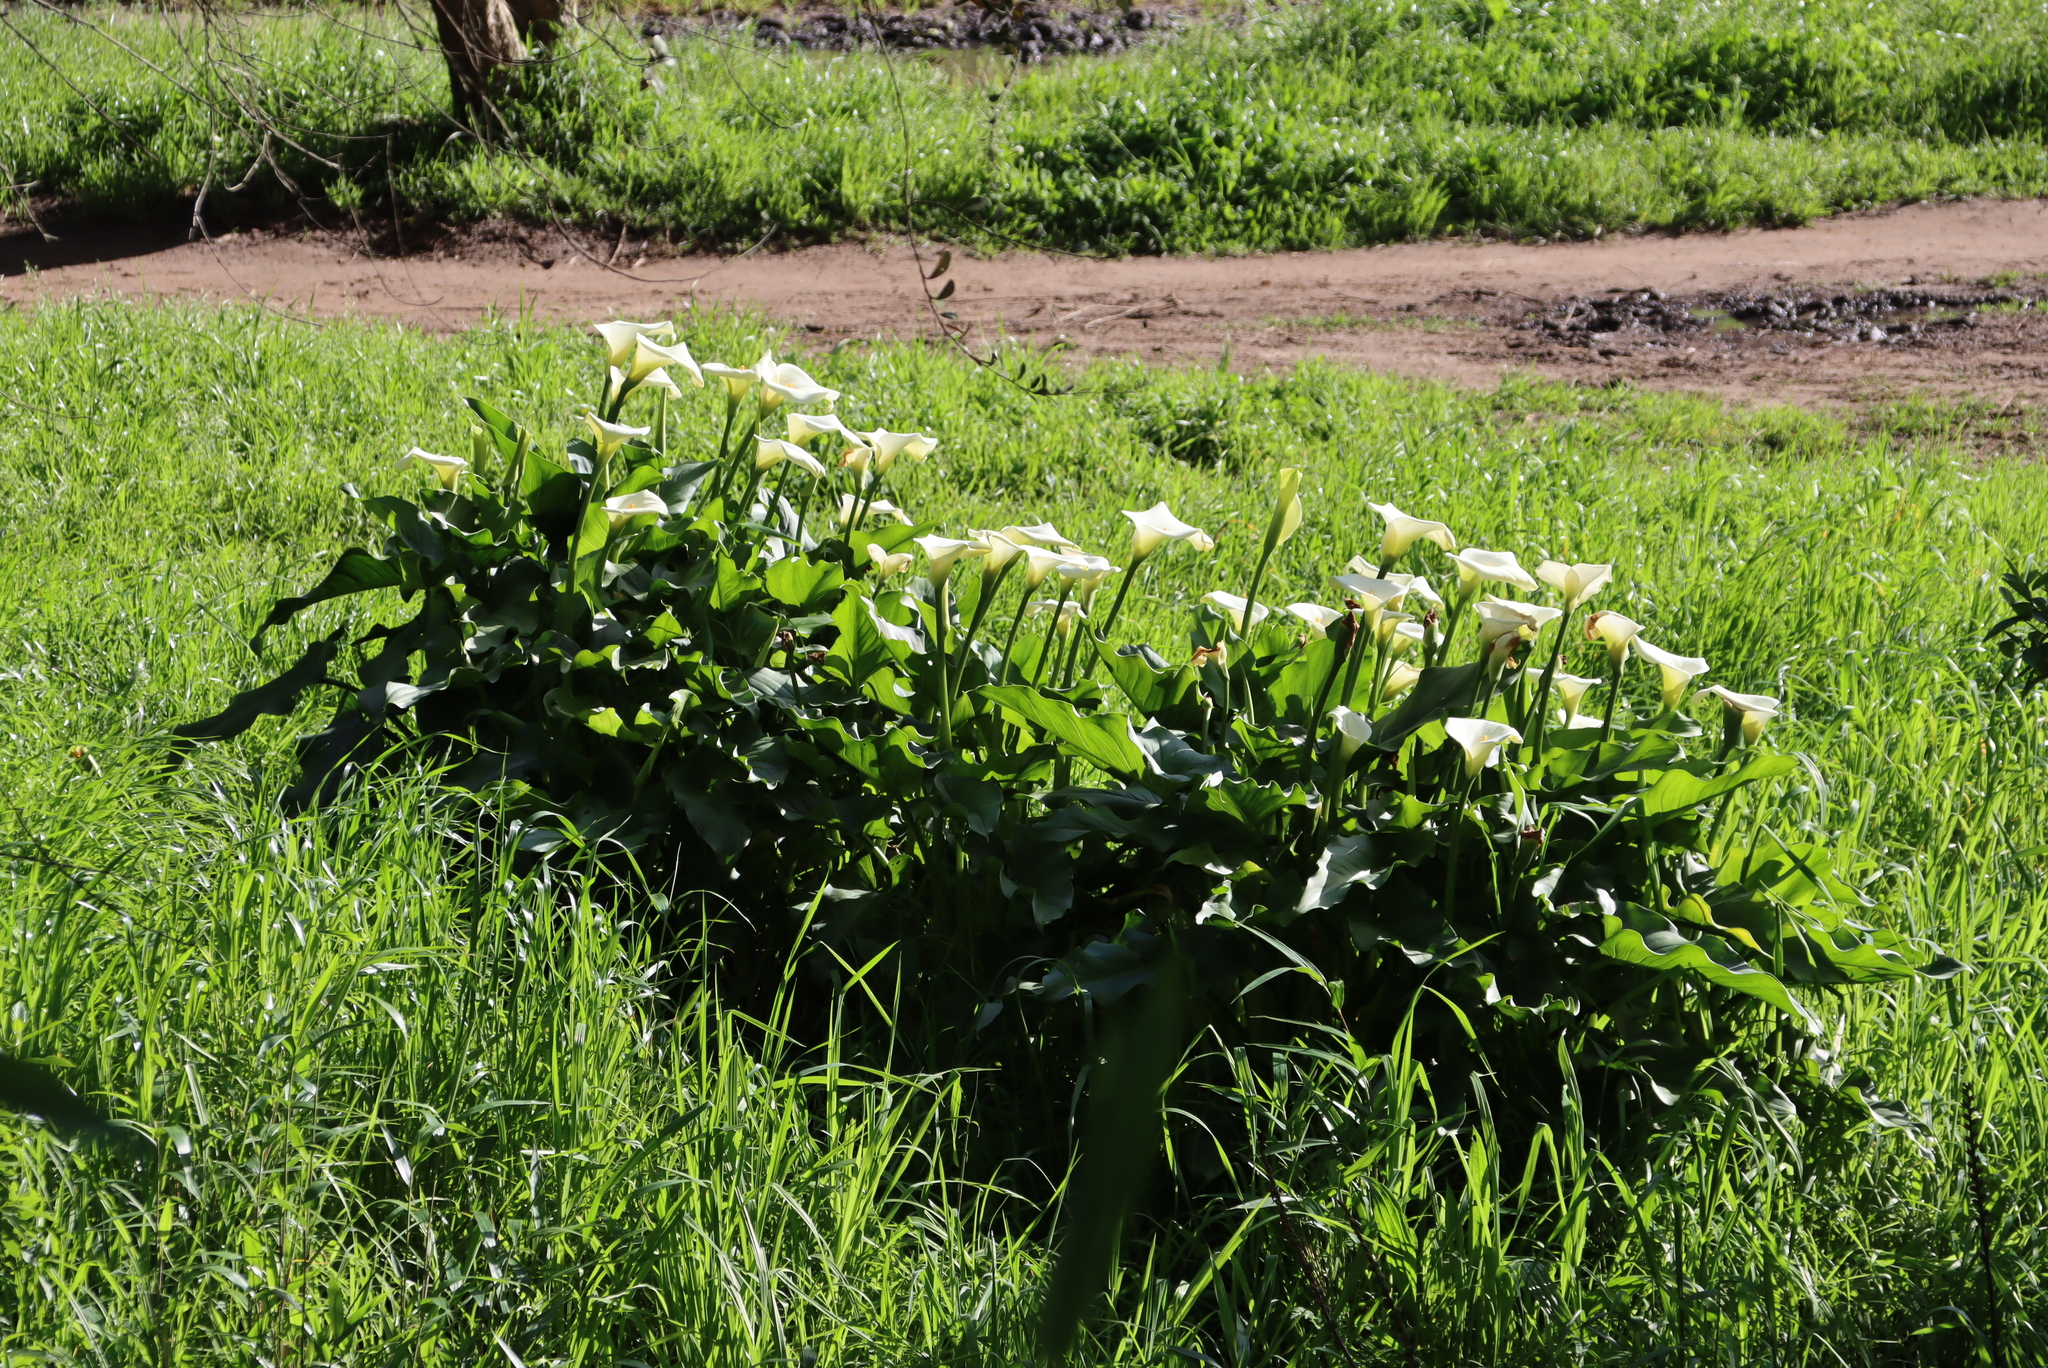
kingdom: Plantae
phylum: Tracheophyta
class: Liliopsida
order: Alismatales
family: Araceae
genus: Zantedeschia
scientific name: Zantedeschia aethiopica
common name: Altar-lily
